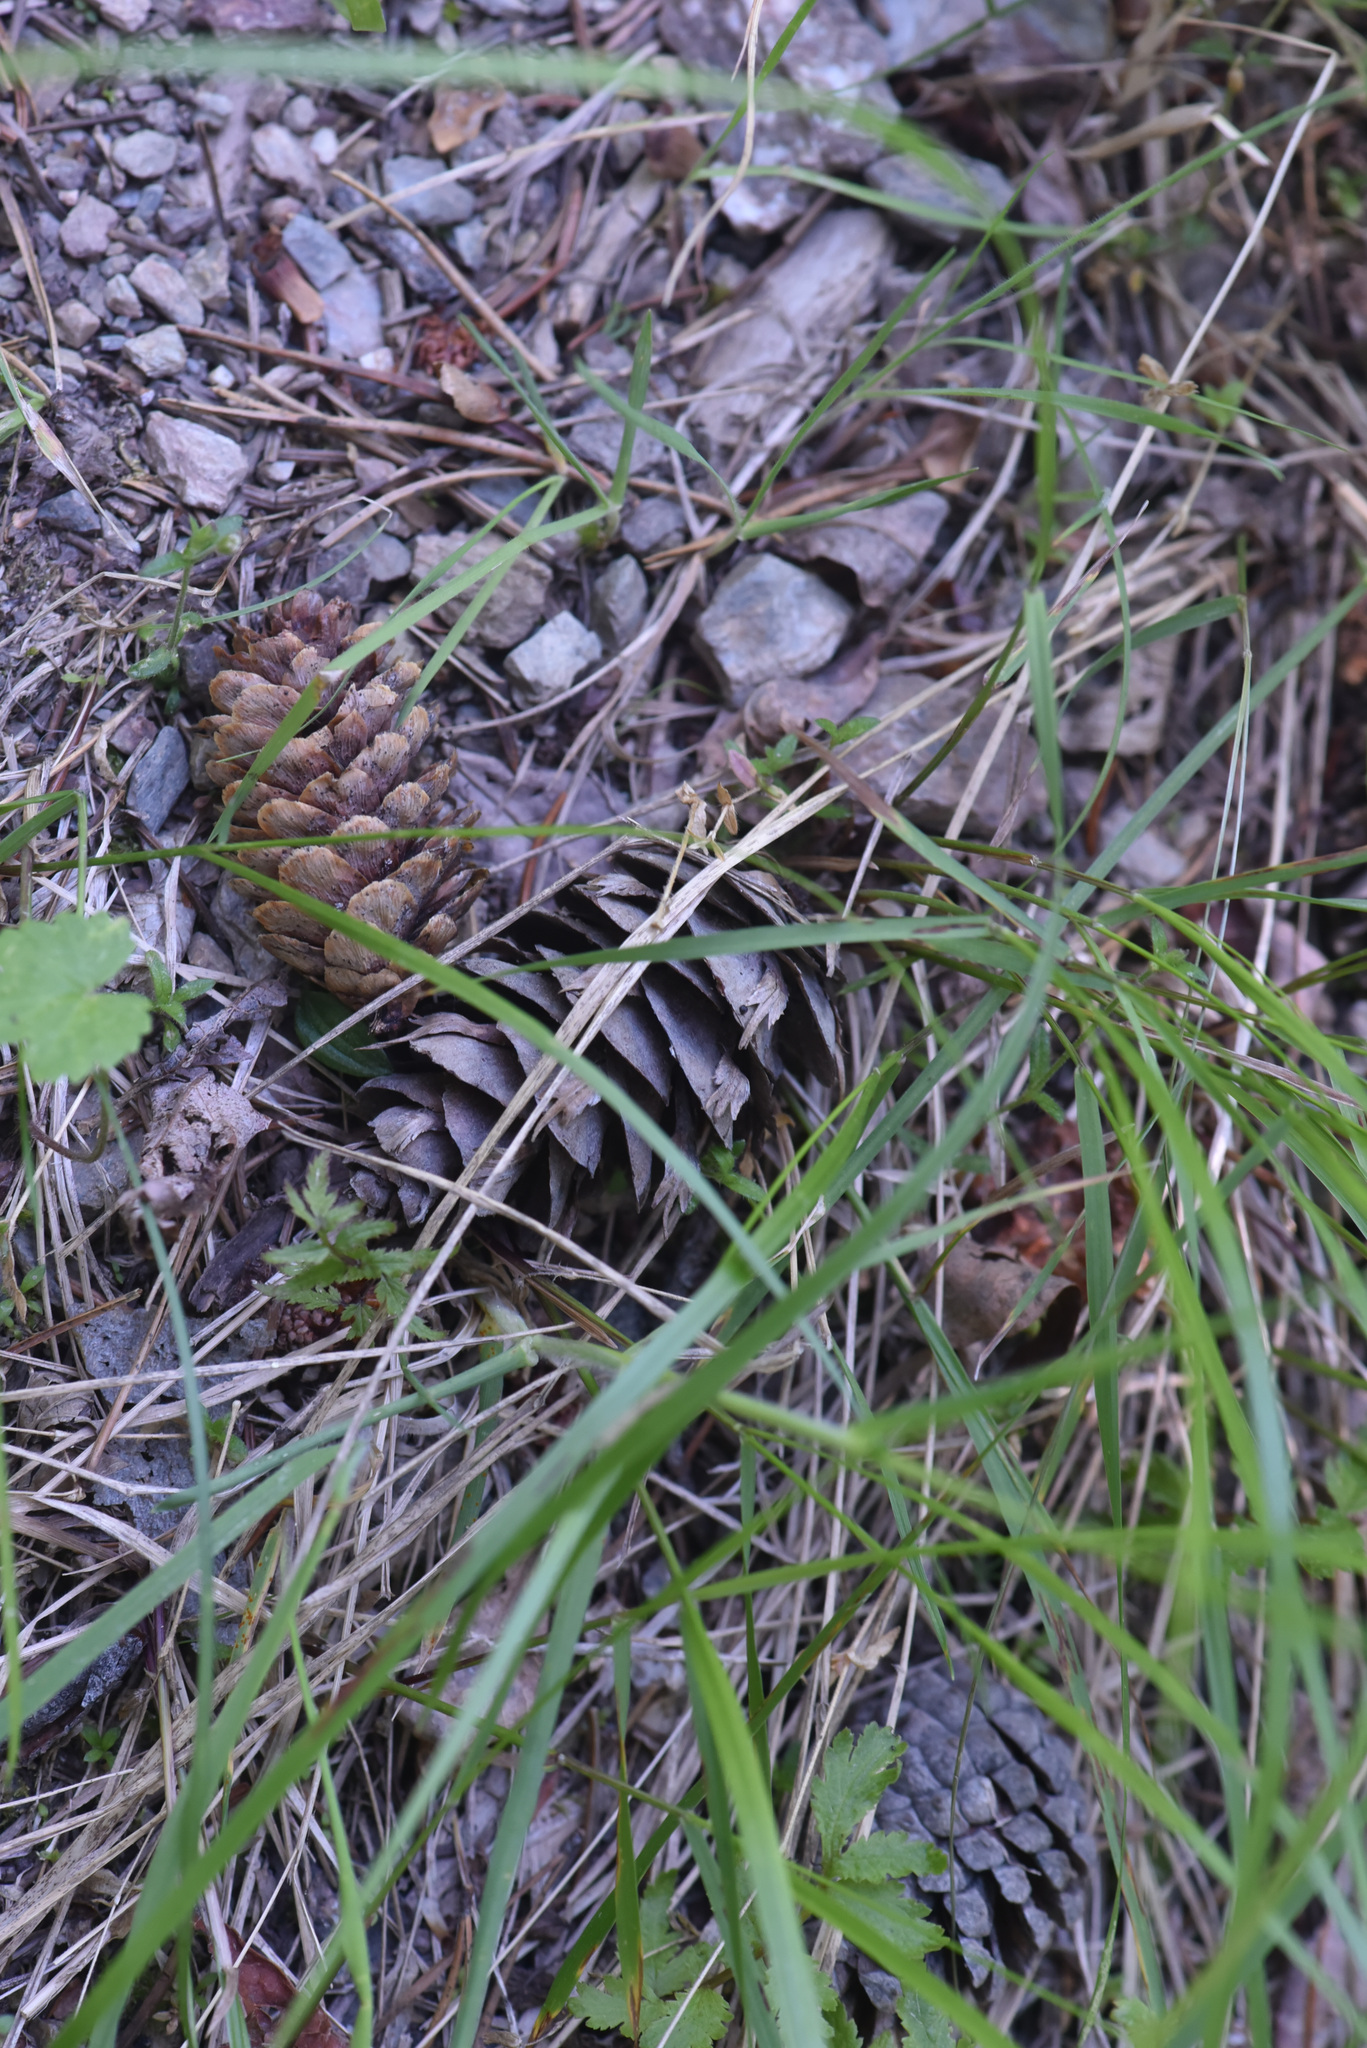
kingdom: Plantae
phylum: Tracheophyta
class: Pinopsida
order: Pinales
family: Pinaceae
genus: Pseudotsuga
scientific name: Pseudotsuga menziesii
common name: Douglas fir
